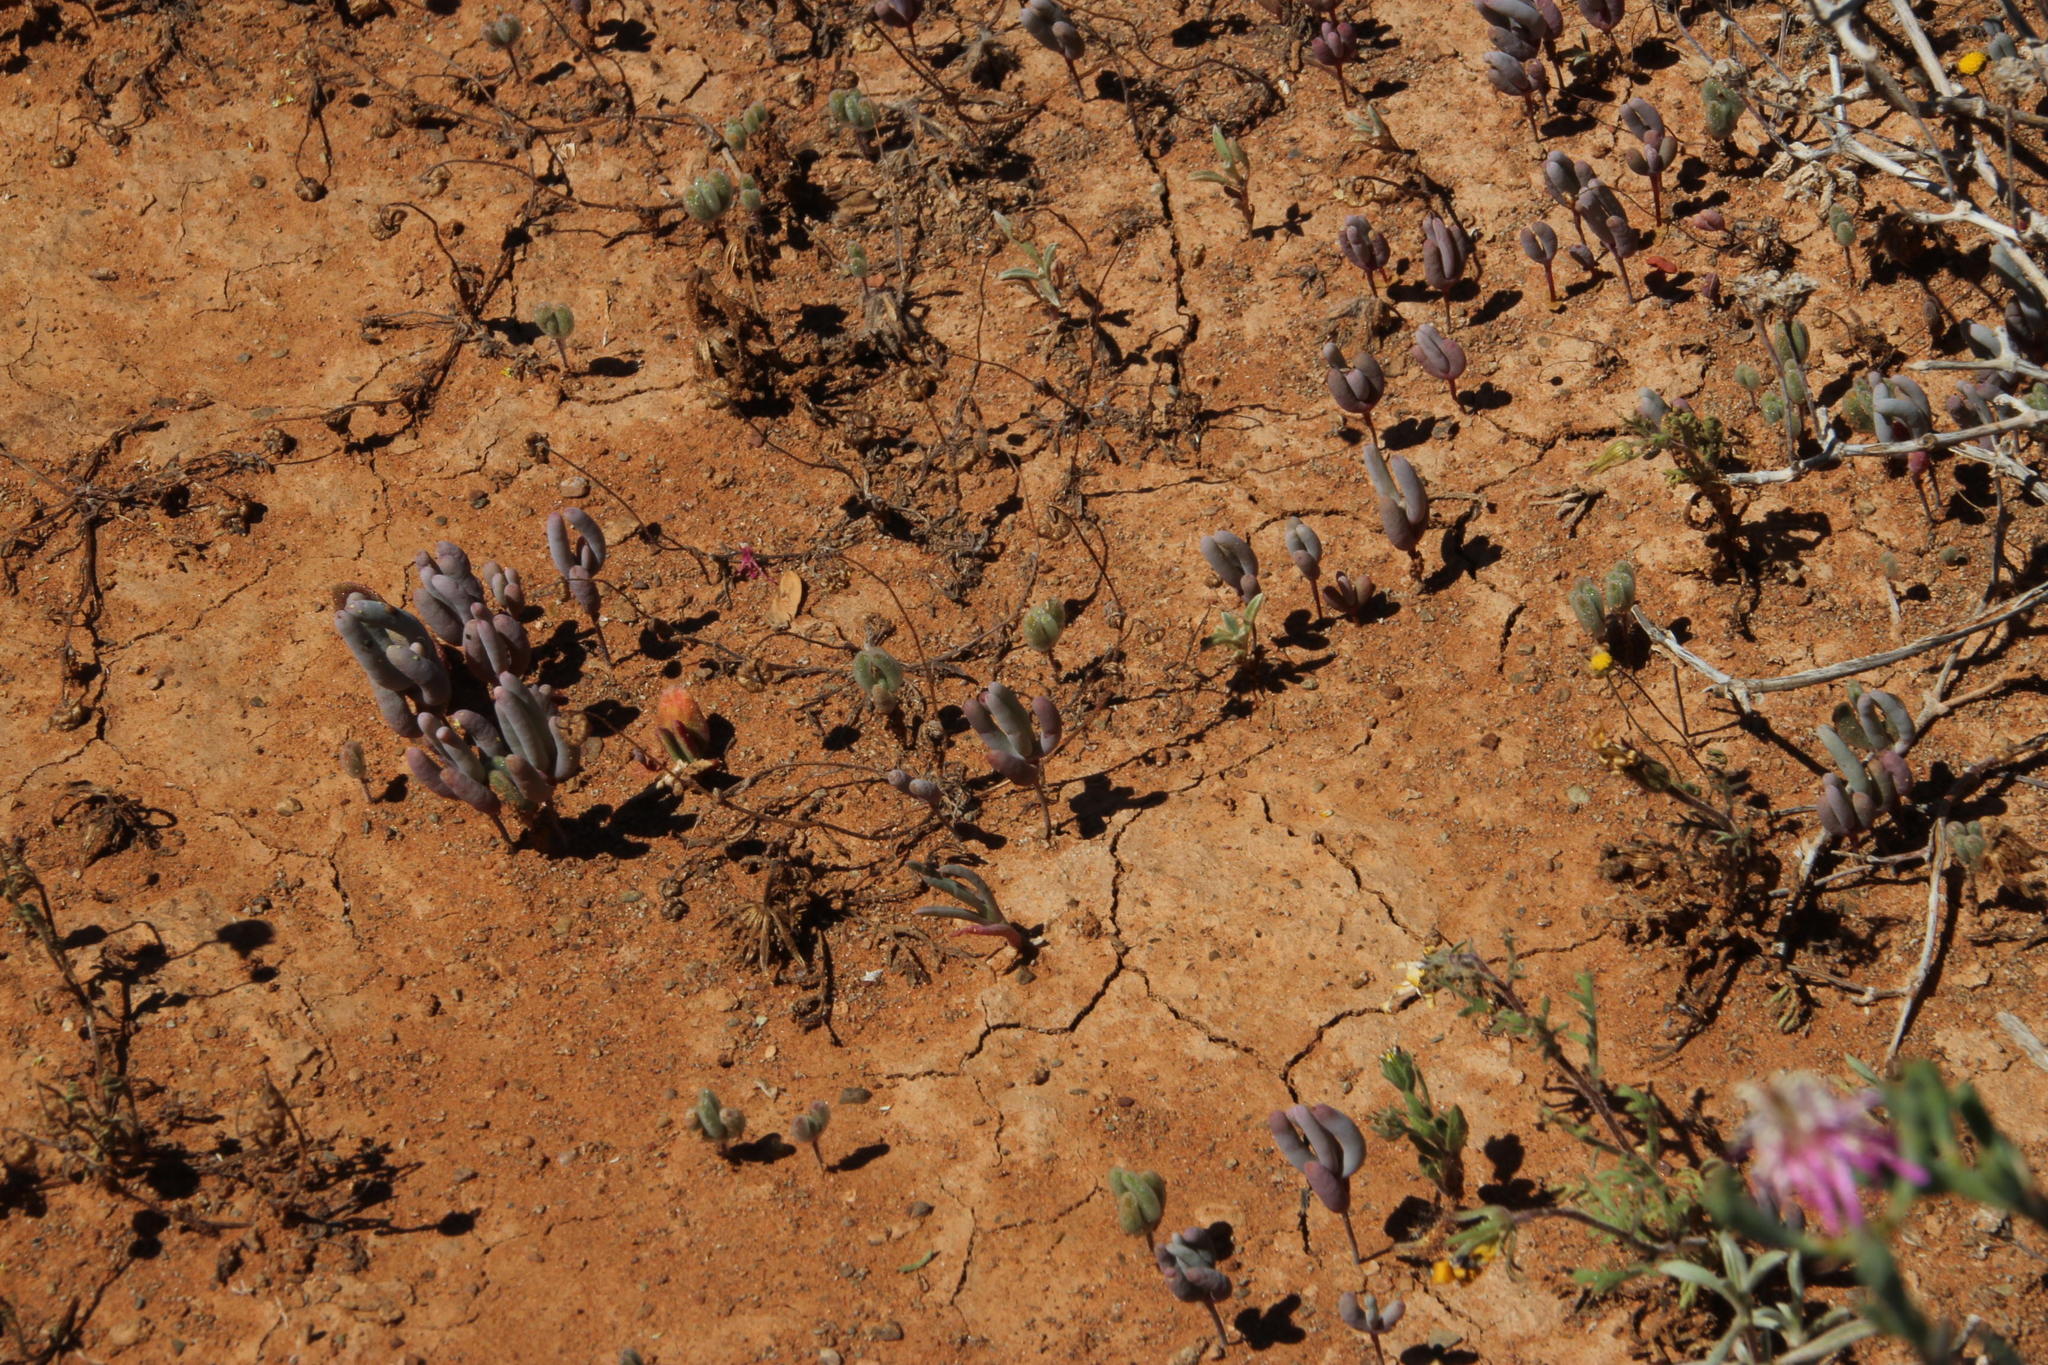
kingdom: Plantae
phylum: Tracheophyta
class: Magnoliopsida
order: Caryophyllales
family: Aizoaceae
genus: Mesembryanthemum
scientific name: Mesembryanthemum tetragonum
